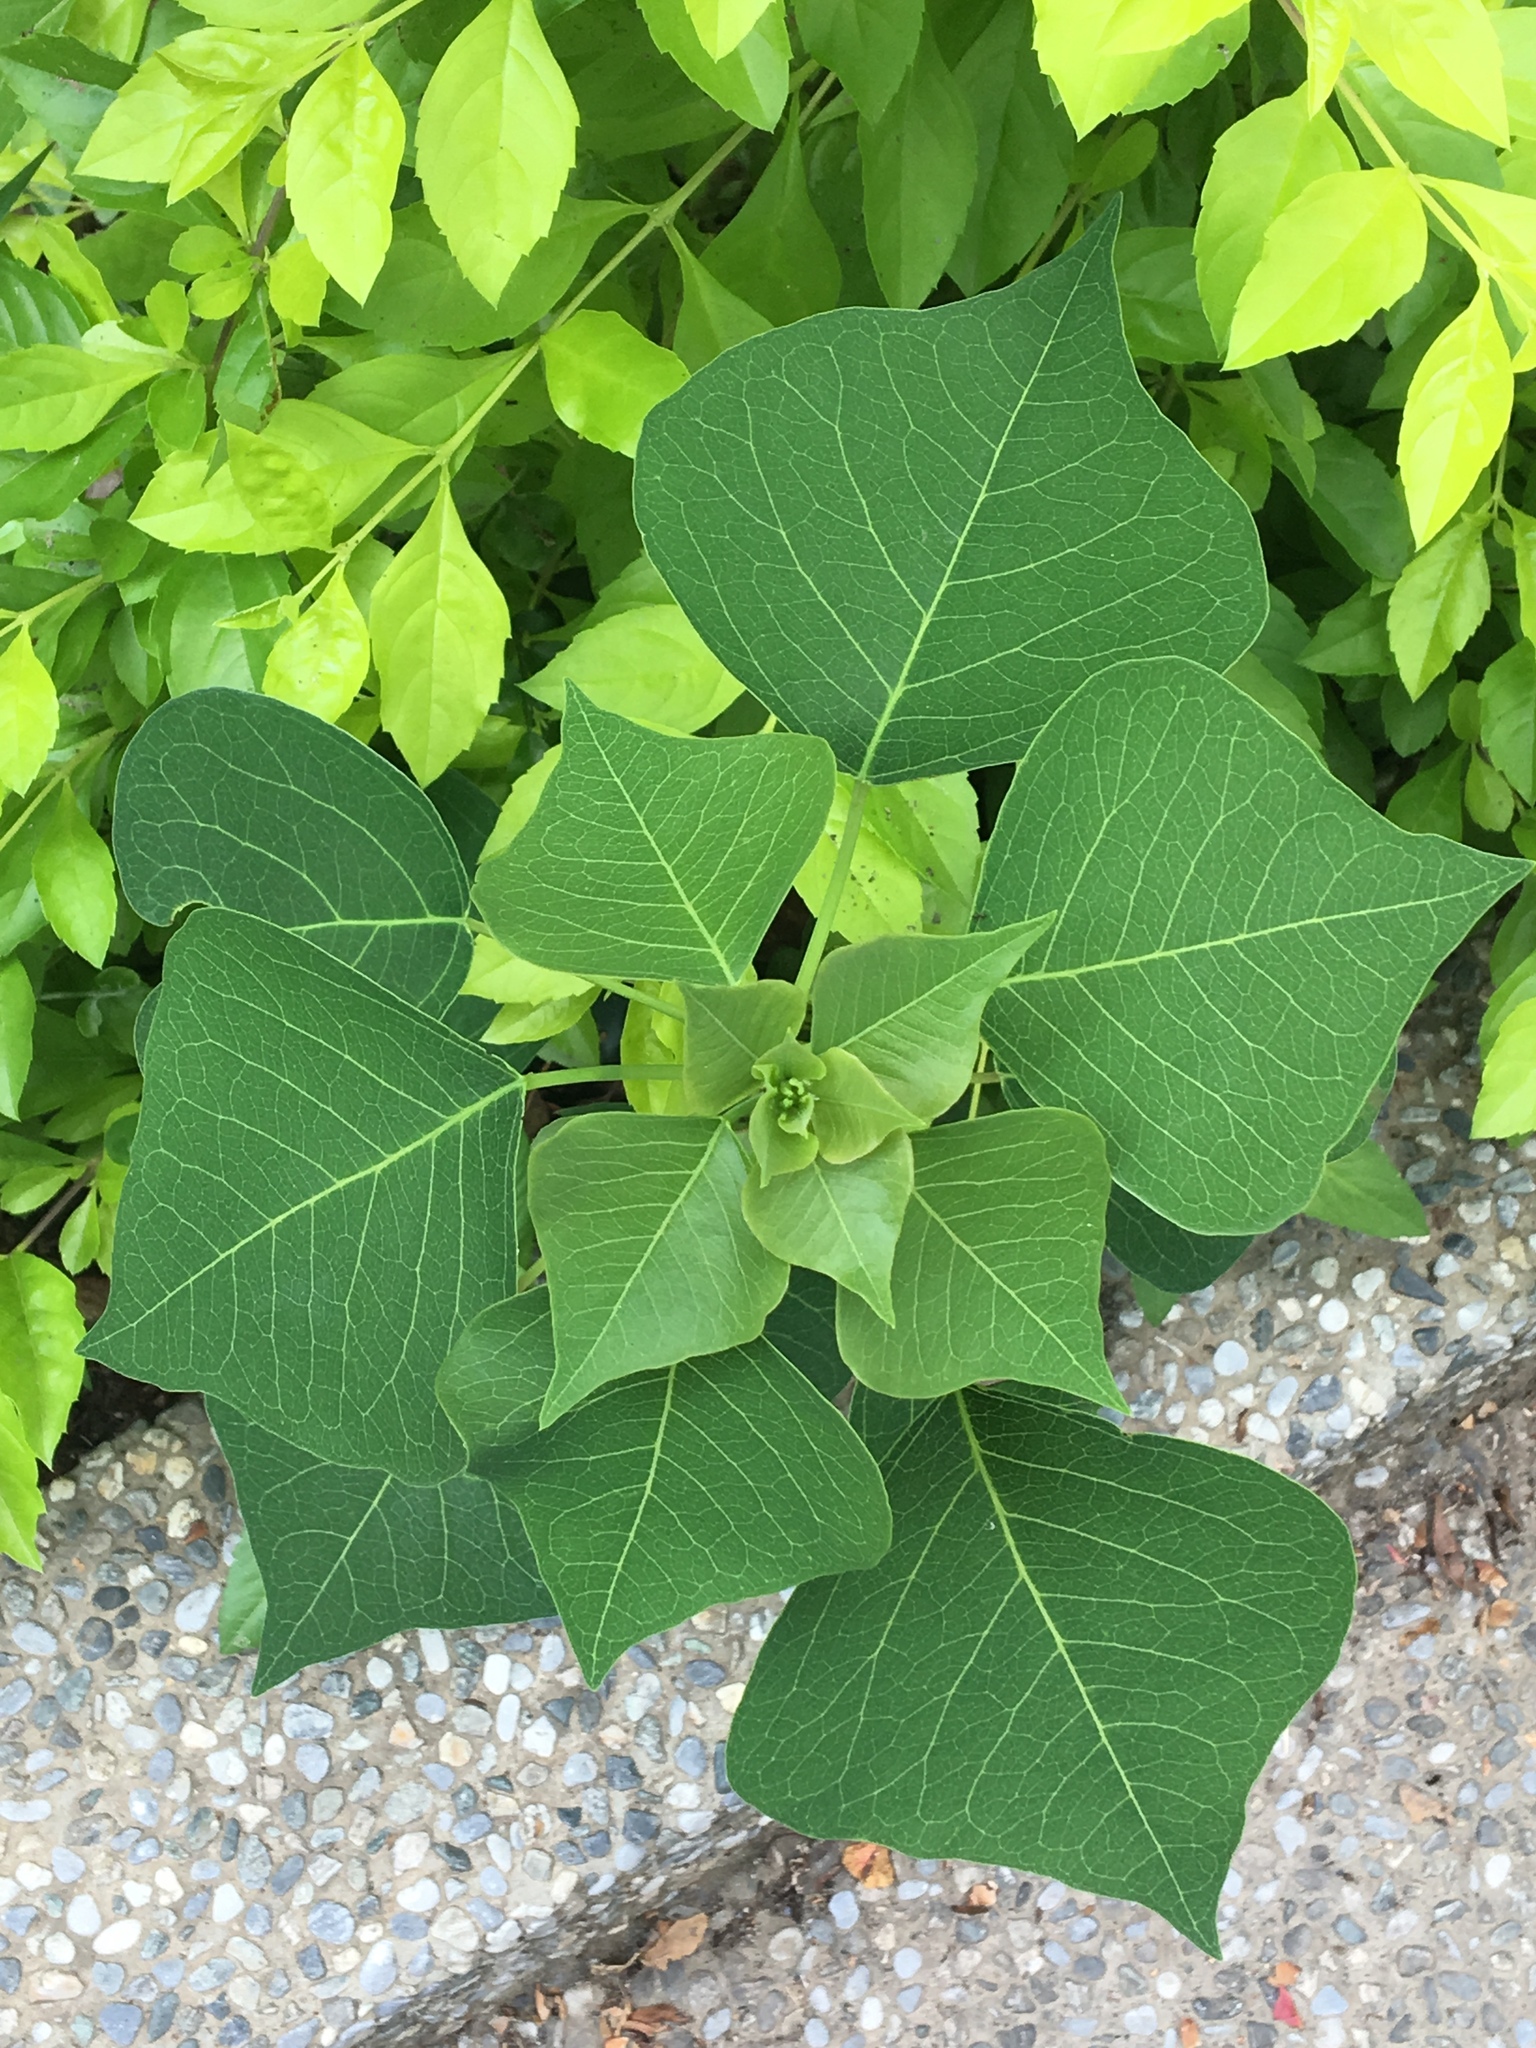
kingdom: Plantae
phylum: Tracheophyta
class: Magnoliopsida
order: Malpighiales
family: Euphorbiaceae
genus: Triadica
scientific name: Triadica sebifera
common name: Chinese tallow
